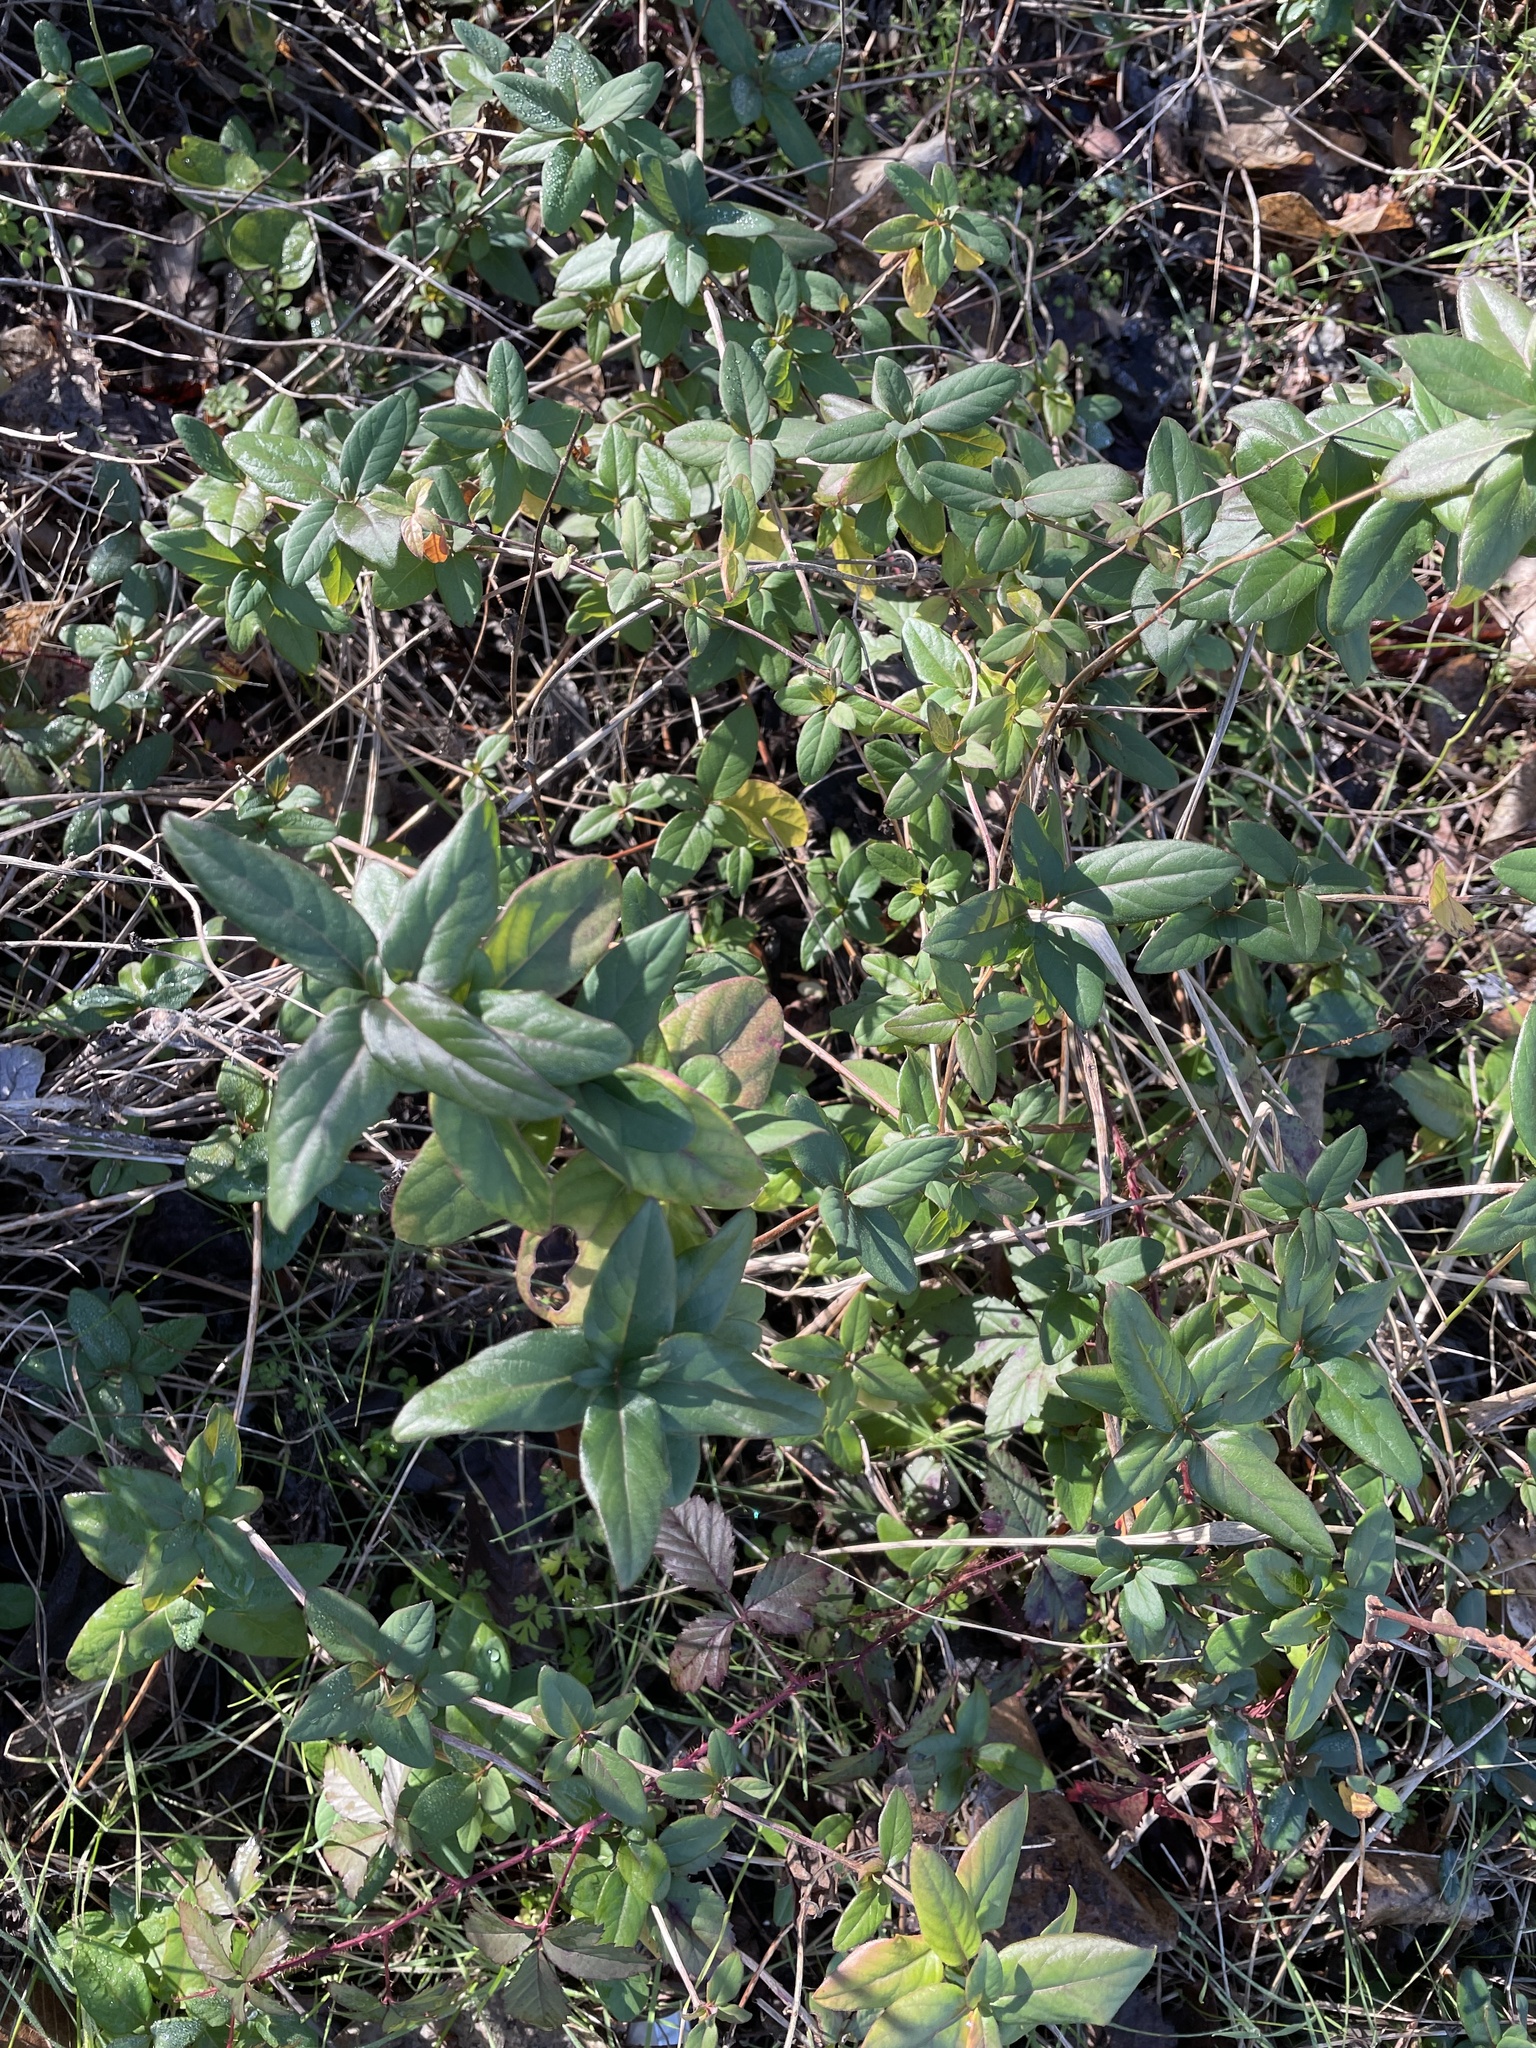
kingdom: Plantae
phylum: Tracheophyta
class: Magnoliopsida
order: Dipsacales
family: Caprifoliaceae
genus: Lonicera
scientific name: Lonicera japonica
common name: Japanese honeysuckle
